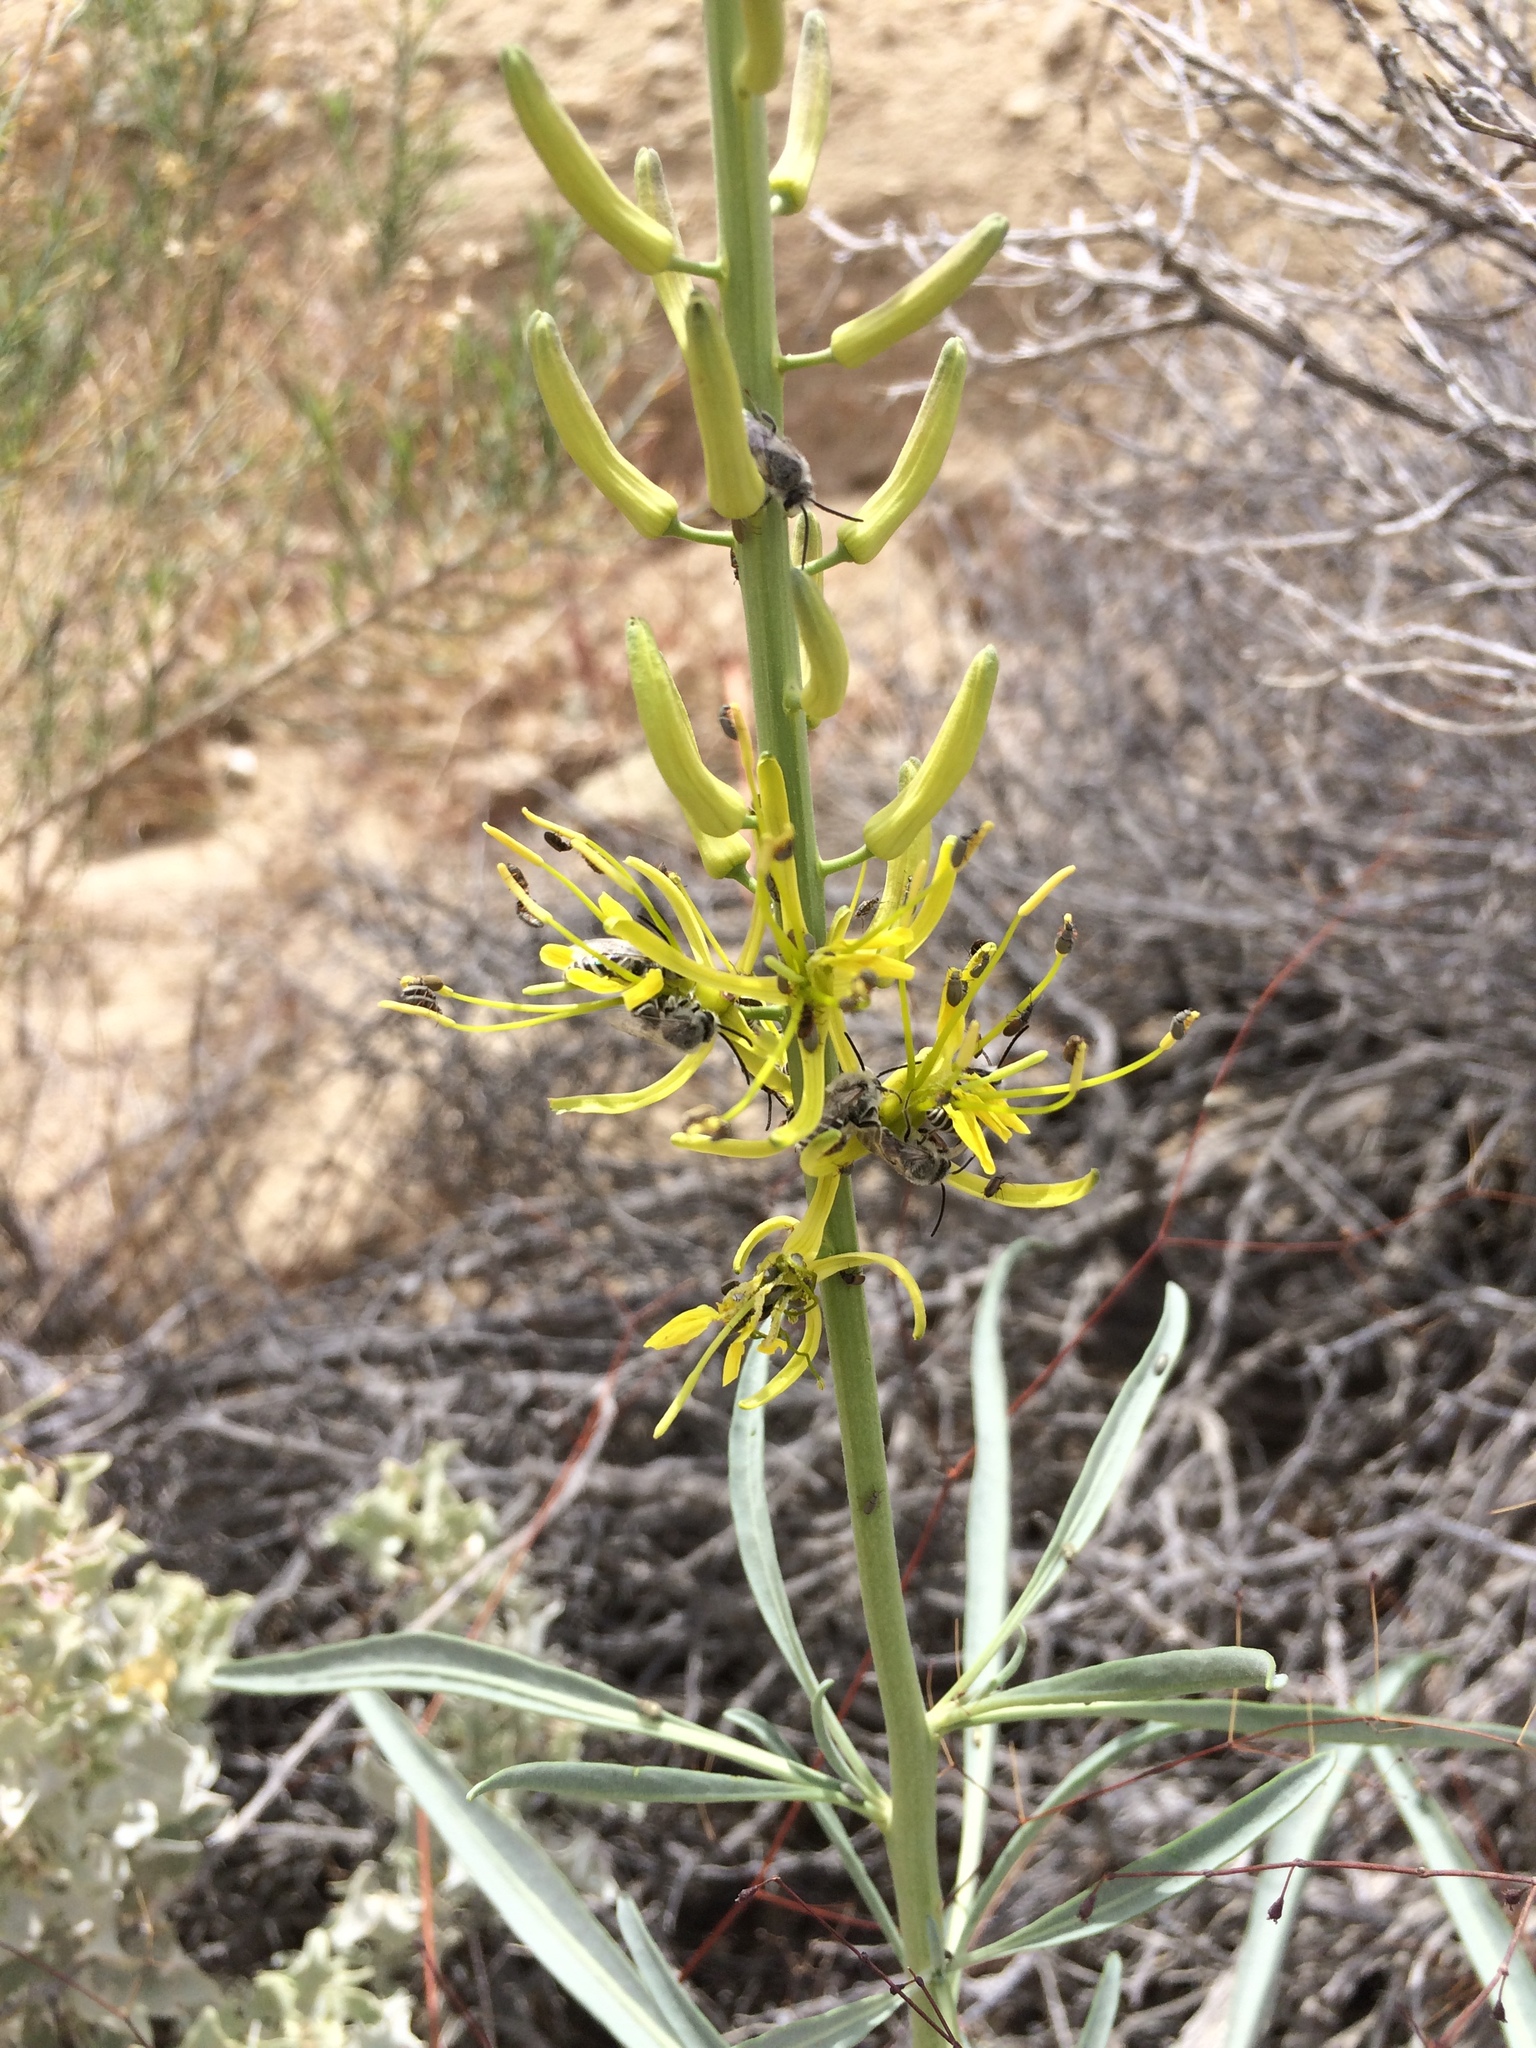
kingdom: Plantae
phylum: Tracheophyta
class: Magnoliopsida
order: Brassicales
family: Brassicaceae
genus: Stanleya
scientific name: Stanleya pinnata
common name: Prince's-plume
